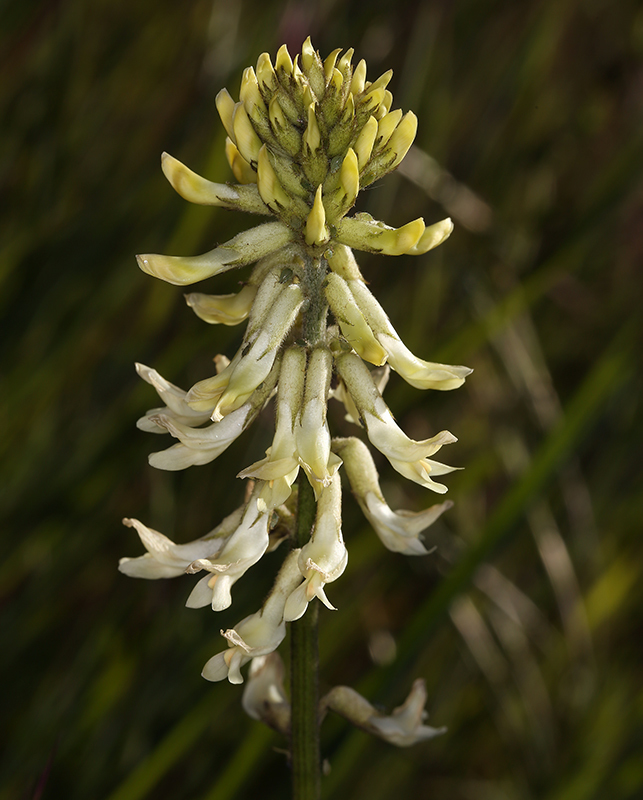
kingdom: Plantae
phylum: Tracheophyta
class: Magnoliopsida
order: Fabales
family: Fabaceae
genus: Astragalus
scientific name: Astragalus oxyphysus
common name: Stanislaus milk-vetch
